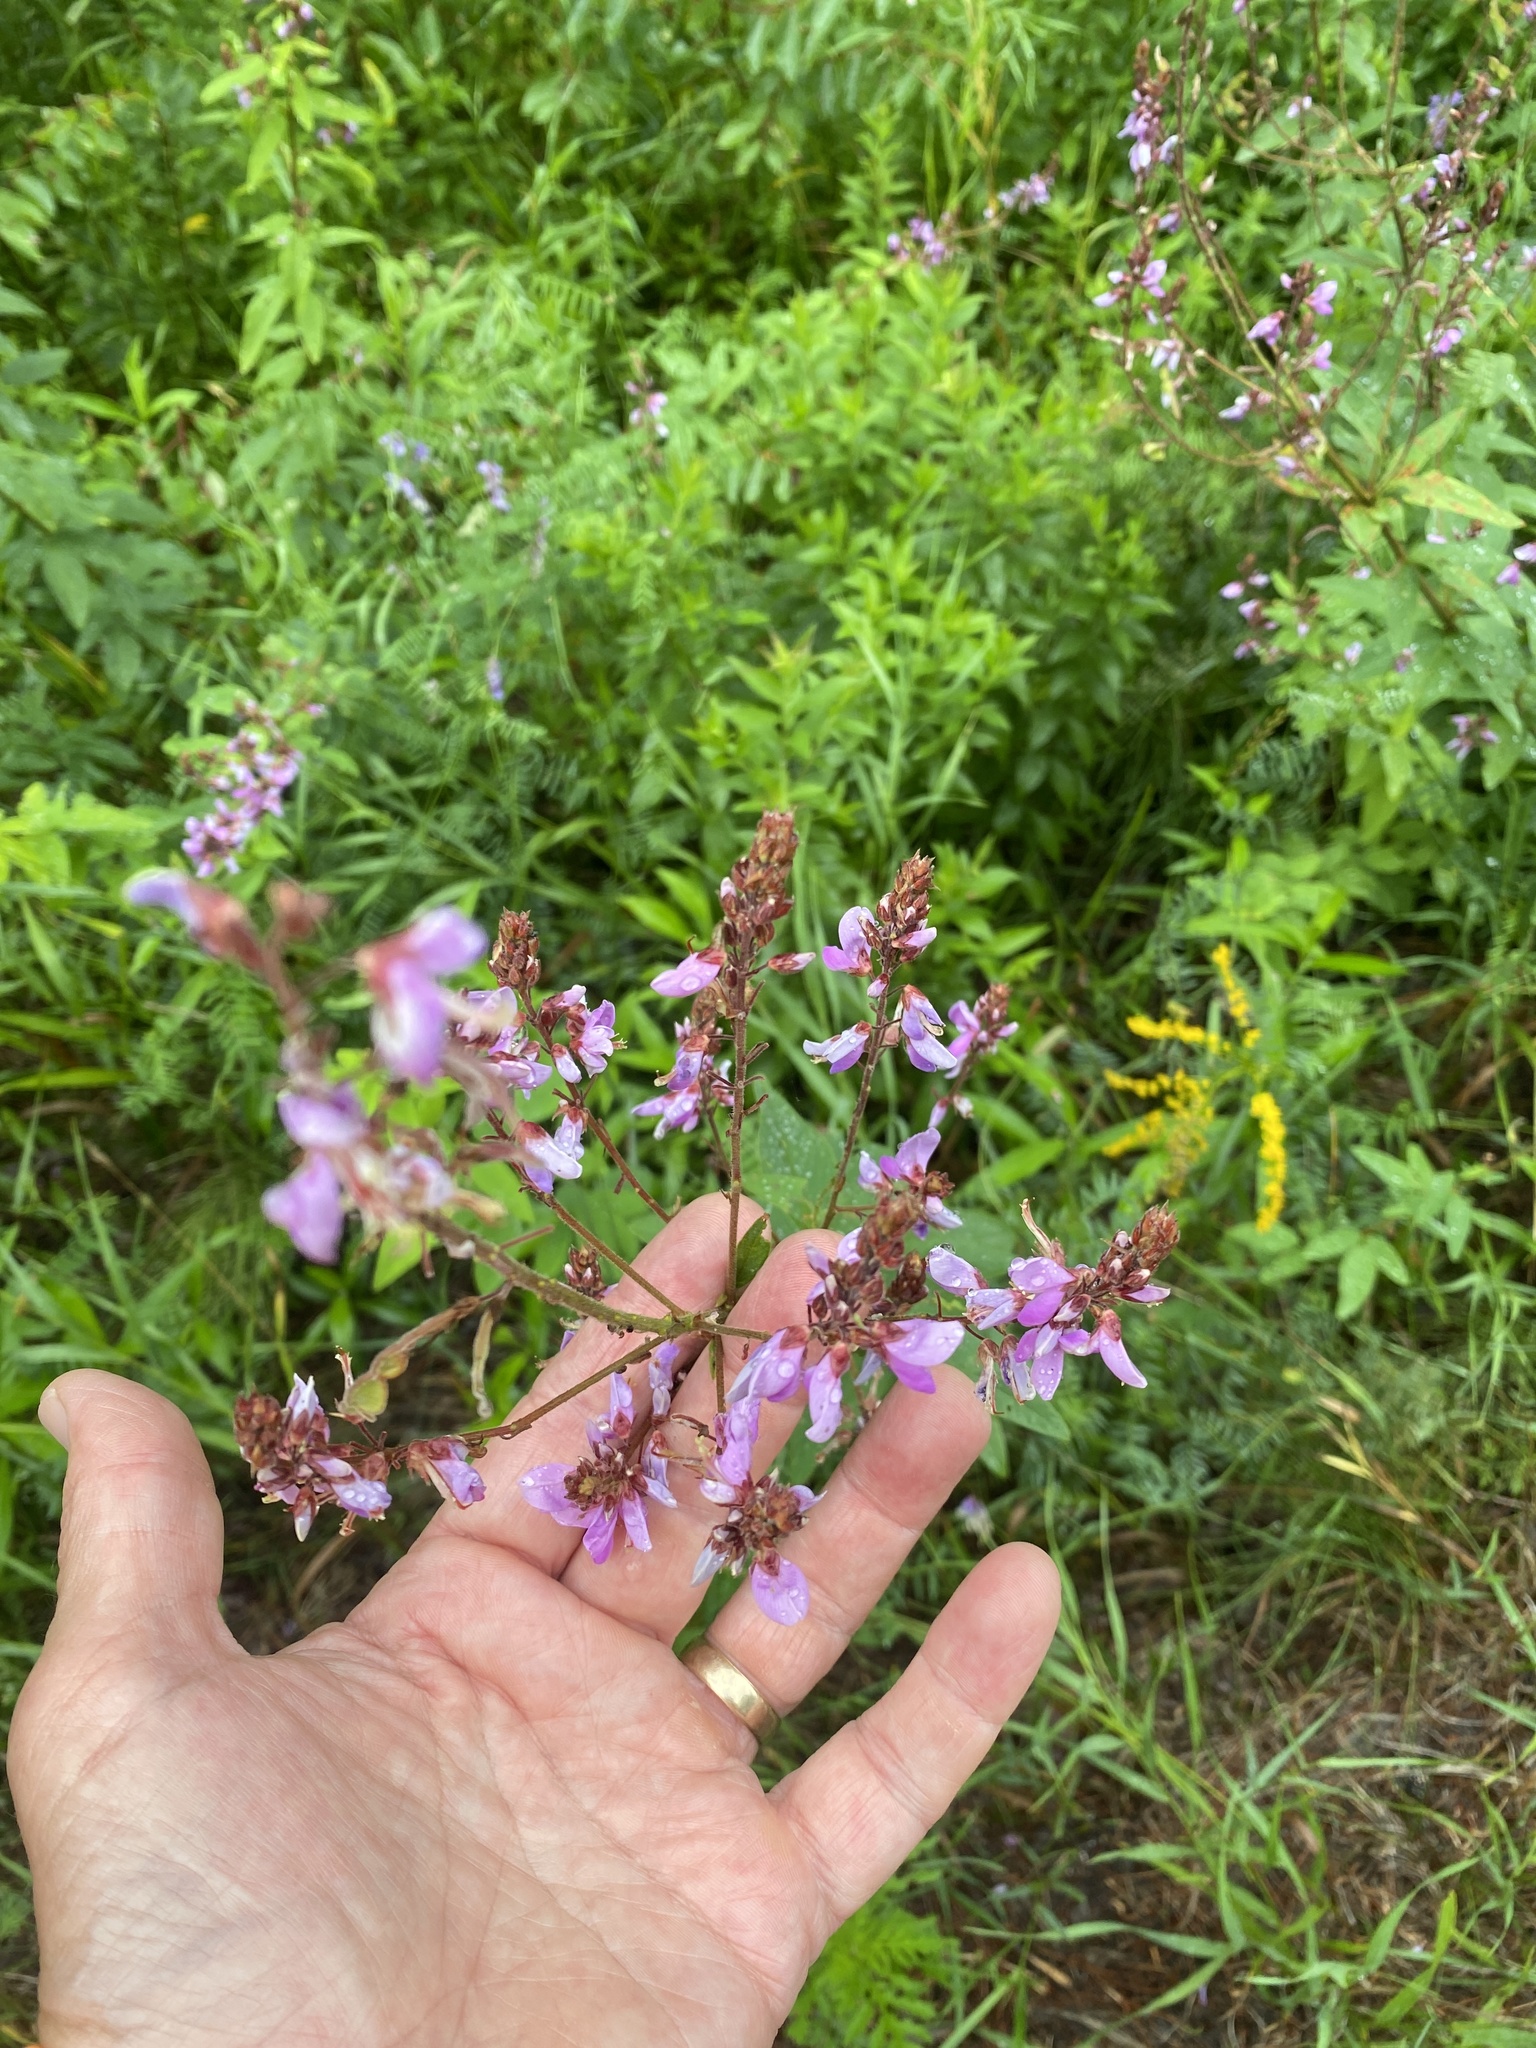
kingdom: Plantae
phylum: Tracheophyta
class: Magnoliopsida
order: Fabales
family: Fabaceae
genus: Desmodium
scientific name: Desmodium canadense
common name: Canada tick-trefoil
